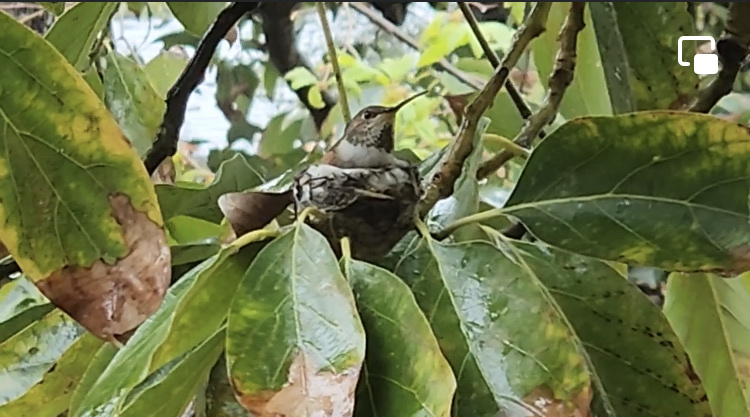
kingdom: Animalia
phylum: Chordata
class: Aves
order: Apodiformes
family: Trochilidae
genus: Selasphorus
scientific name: Selasphorus sasin
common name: Allen's hummingbird
